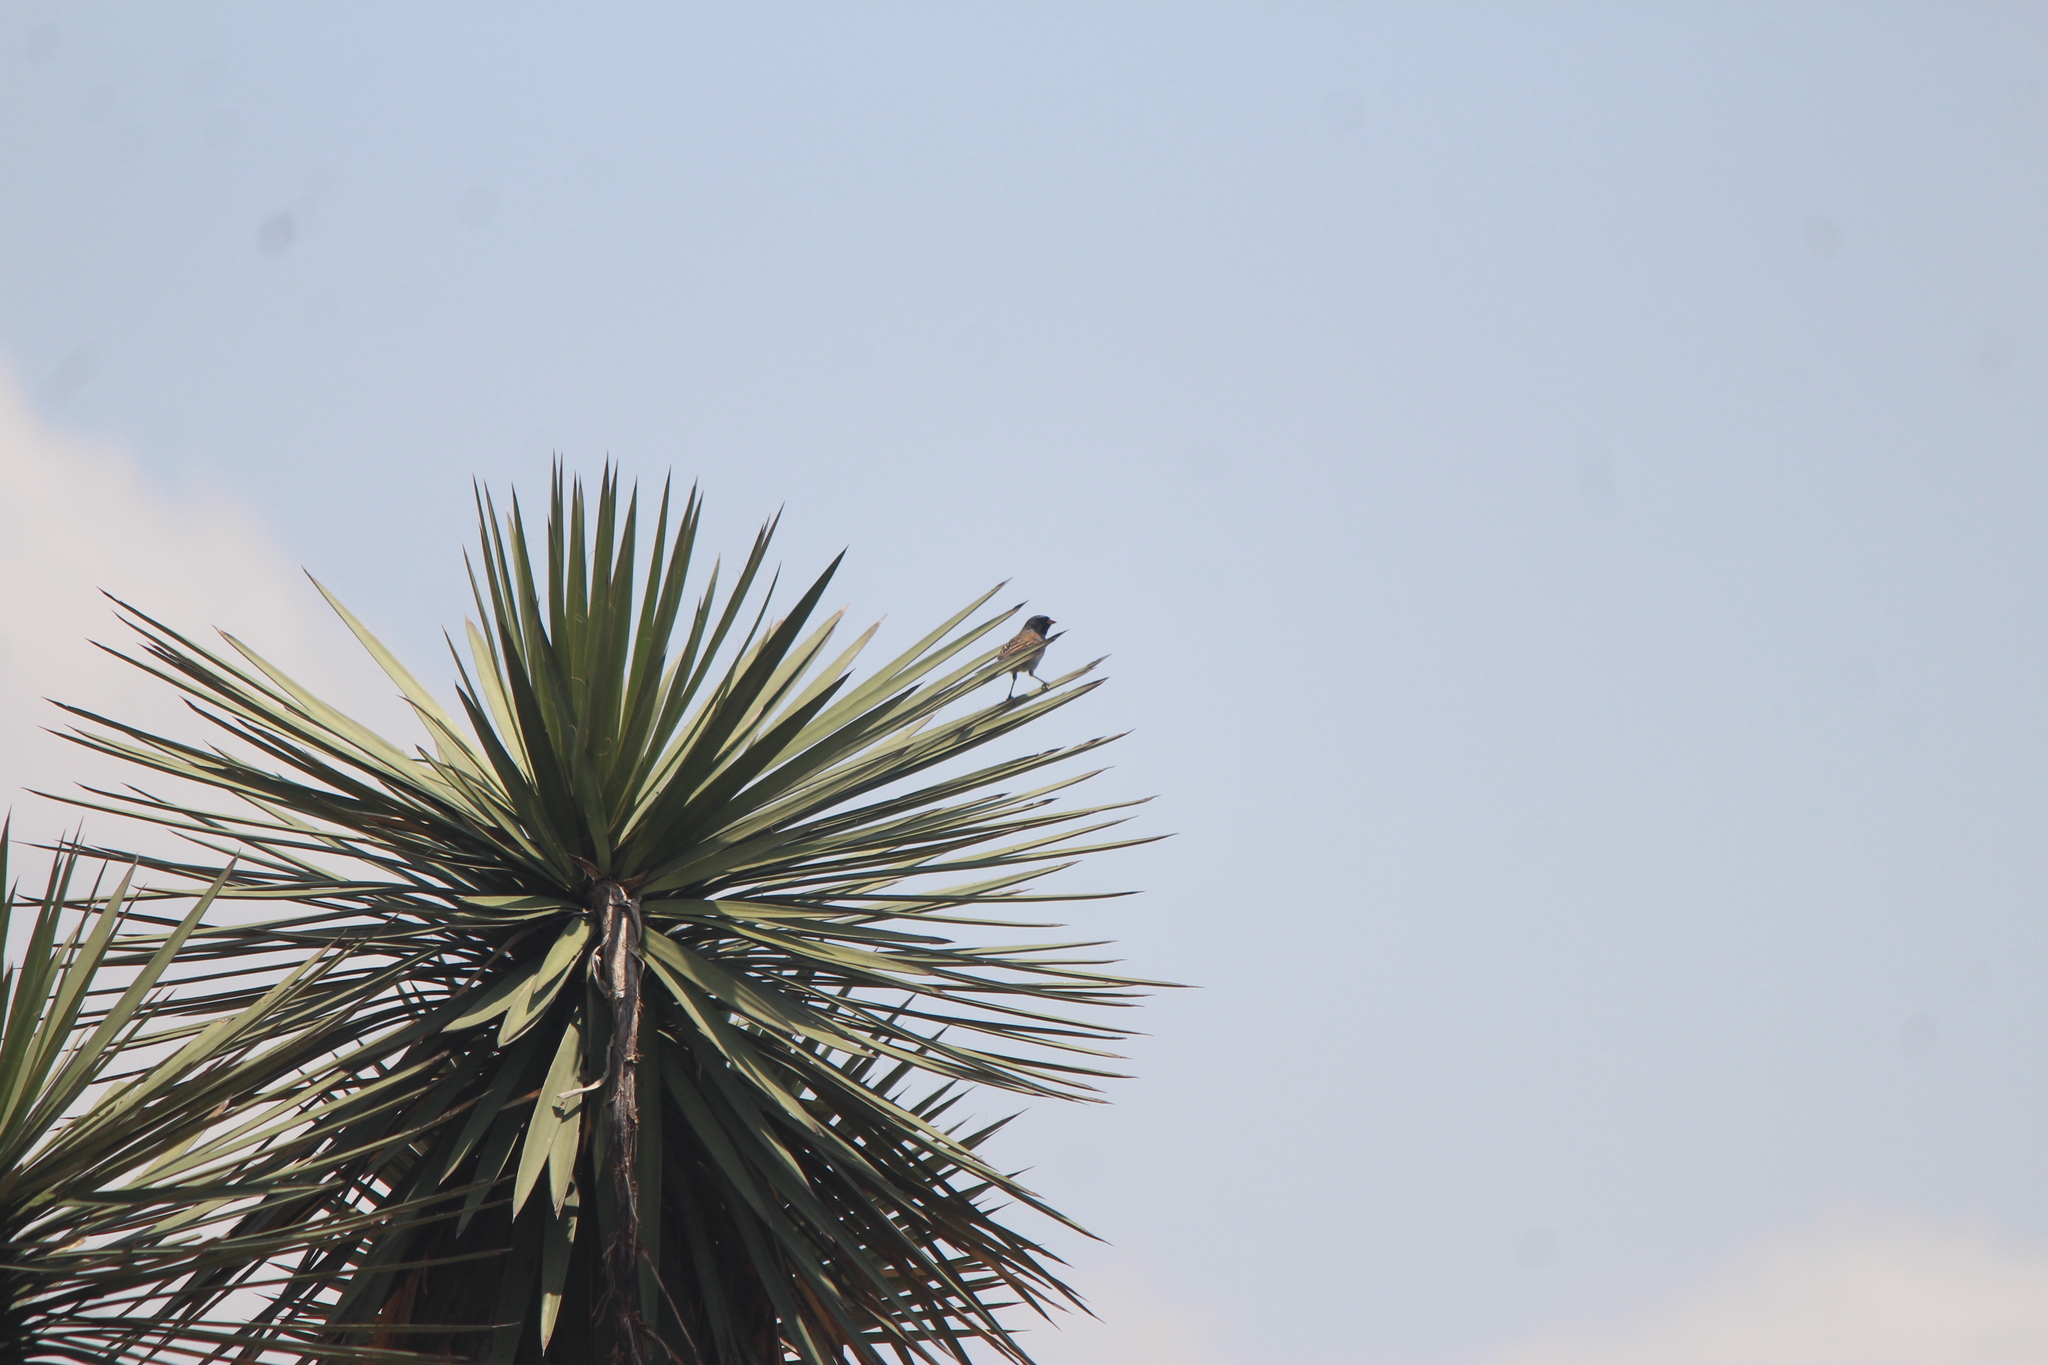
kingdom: Animalia
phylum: Chordata
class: Aves
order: Passeriformes
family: Passerellidae
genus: Spizella
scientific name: Spizella atrogularis
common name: Black-chinned sparrow
